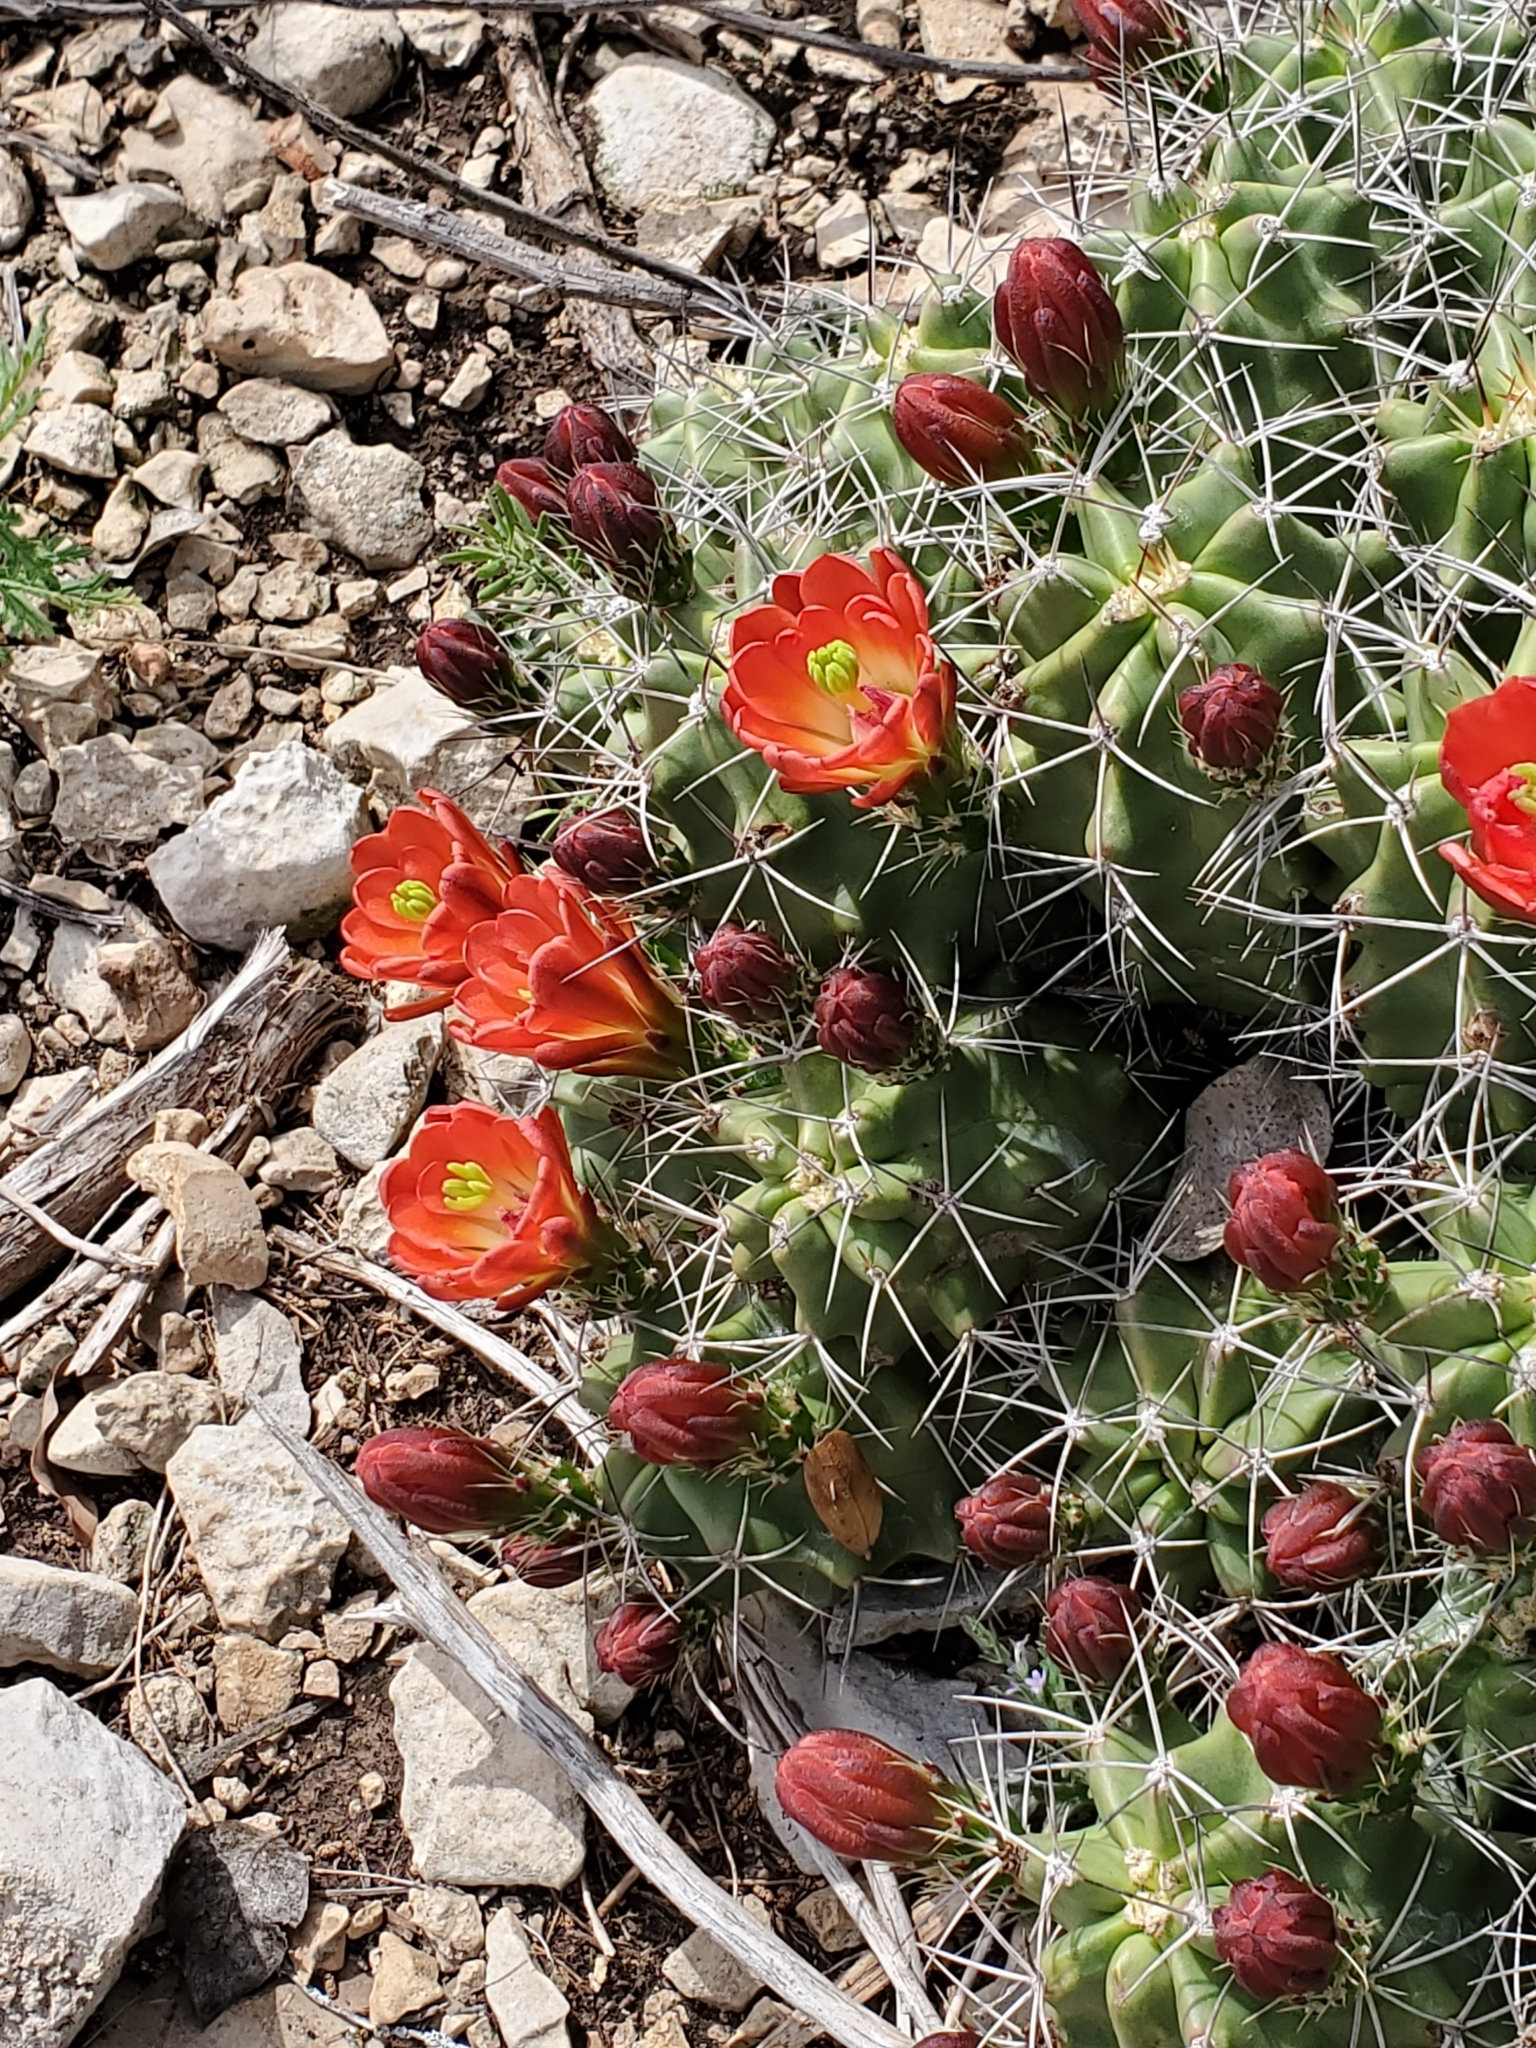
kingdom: Plantae
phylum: Tracheophyta
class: Magnoliopsida
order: Caryophyllales
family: Cactaceae
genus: Echinocereus
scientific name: Echinocereus coccineus
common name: Scarlet hedgehog cactus
